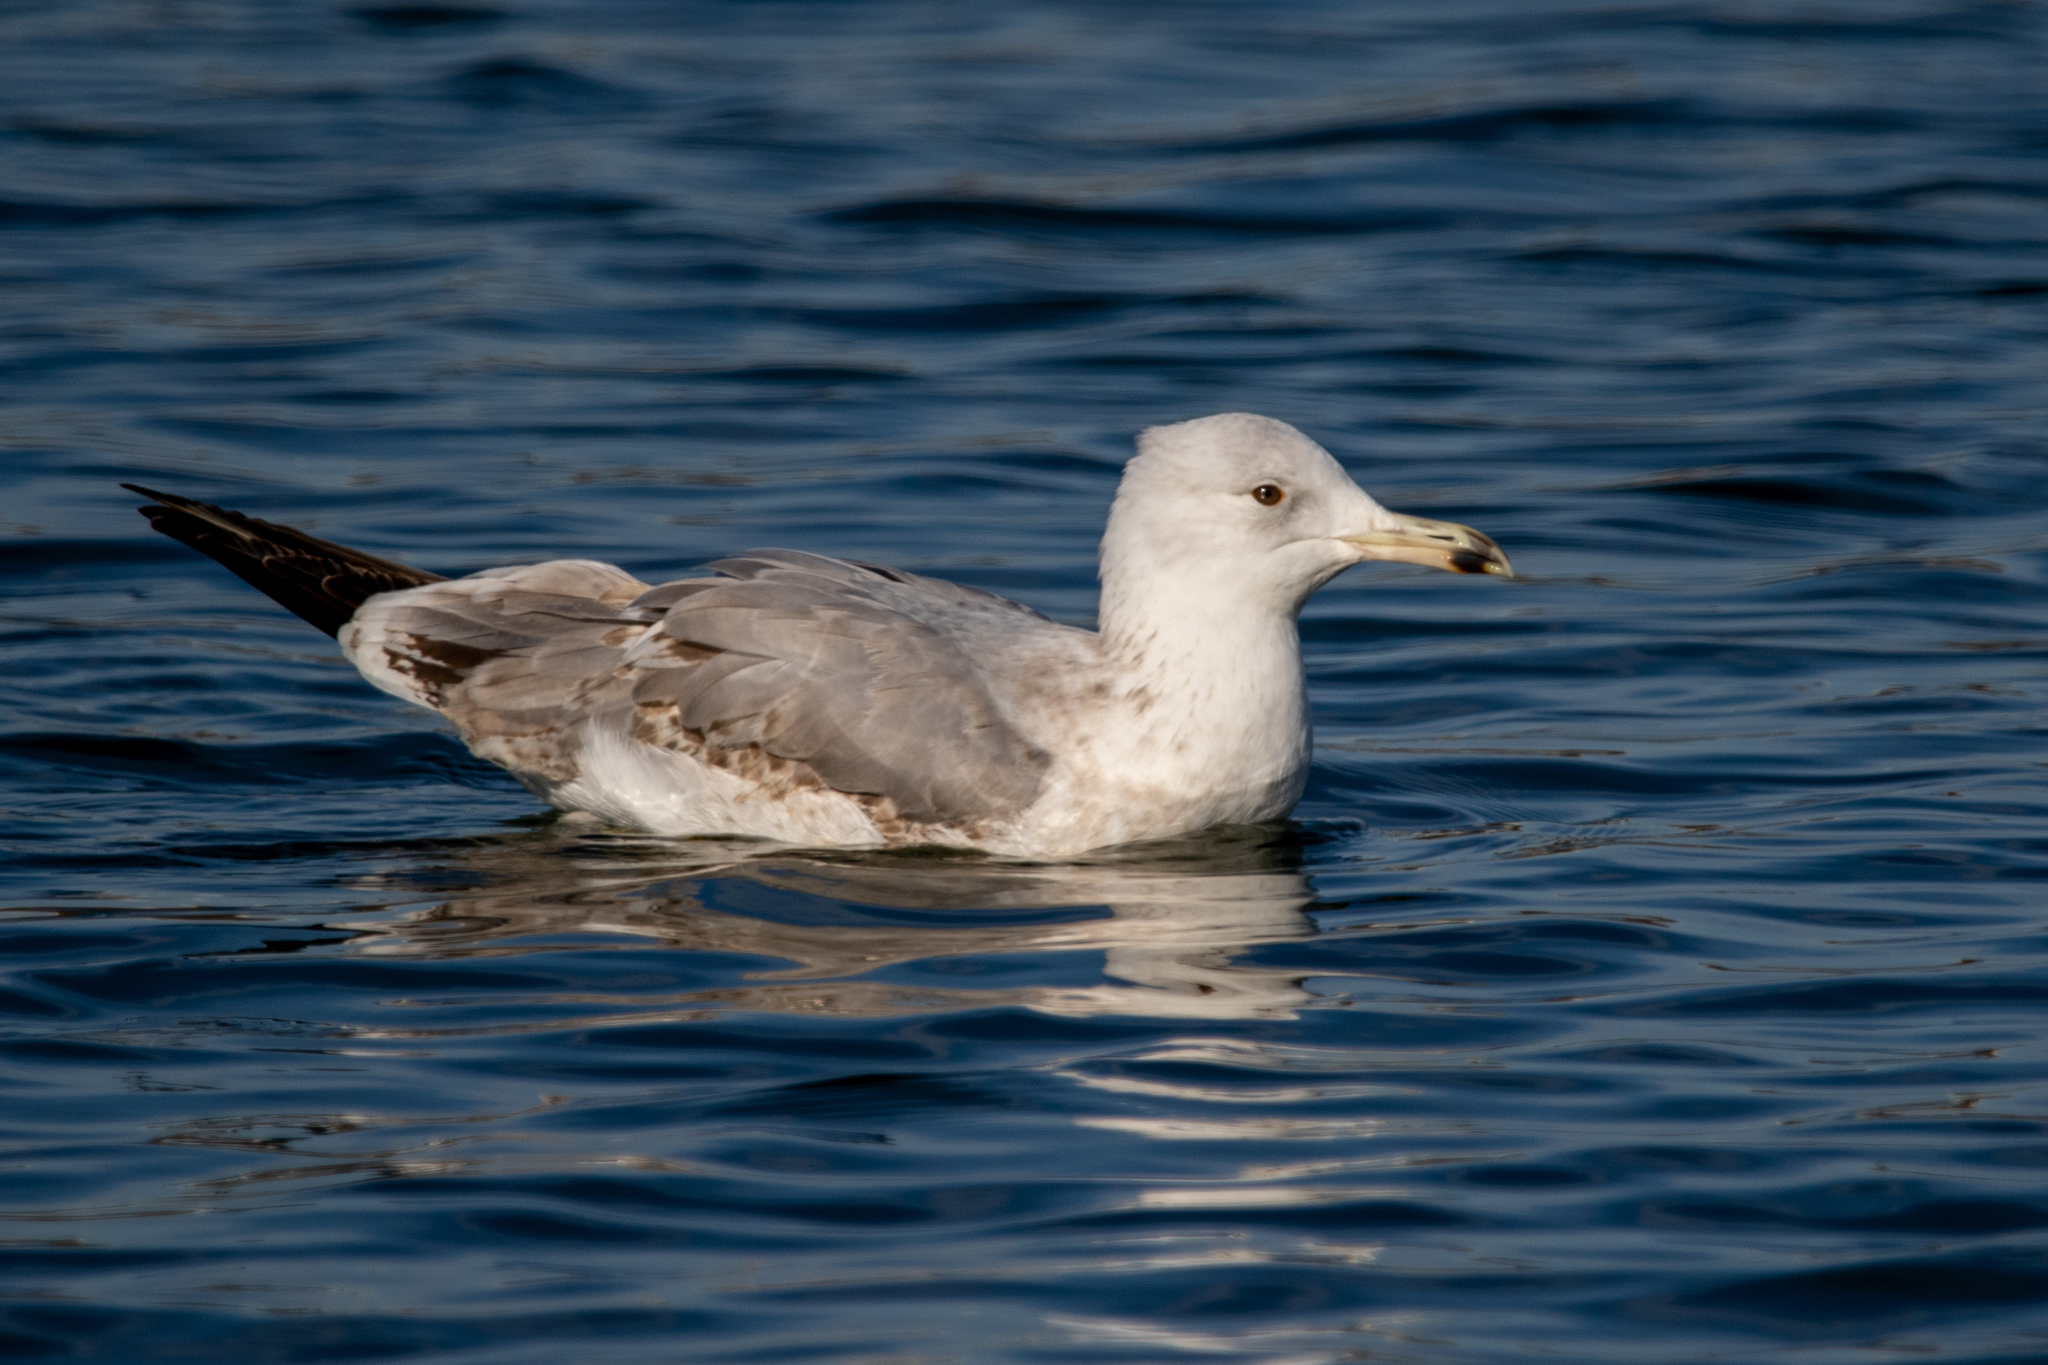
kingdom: Animalia
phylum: Chordata
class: Aves
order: Charadriiformes
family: Laridae
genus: Larus
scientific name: Larus cachinnans
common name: Caspian gull
